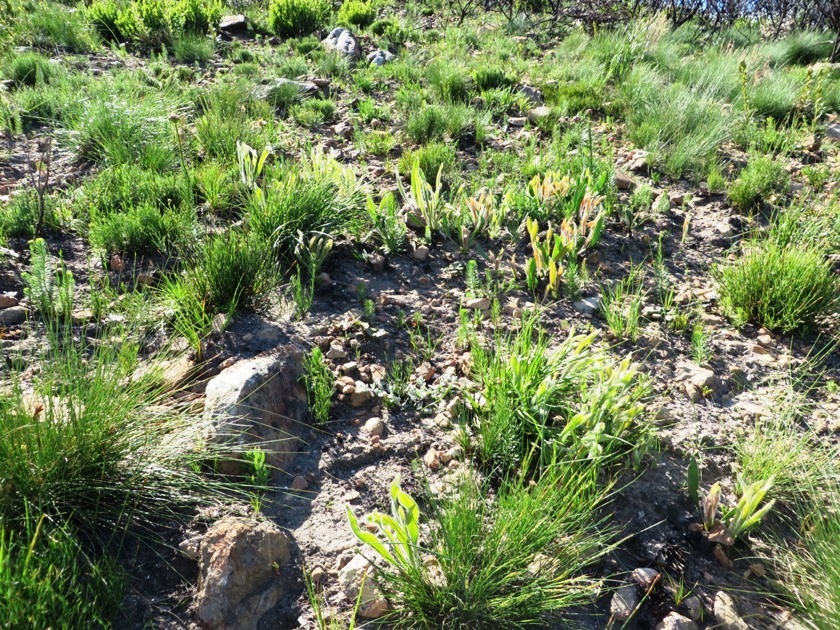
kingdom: Plantae
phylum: Tracheophyta
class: Magnoliopsida
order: Proteales
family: Proteaceae
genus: Protea
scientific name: Protea scabra
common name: Sandpaper-leaf sugarbush
